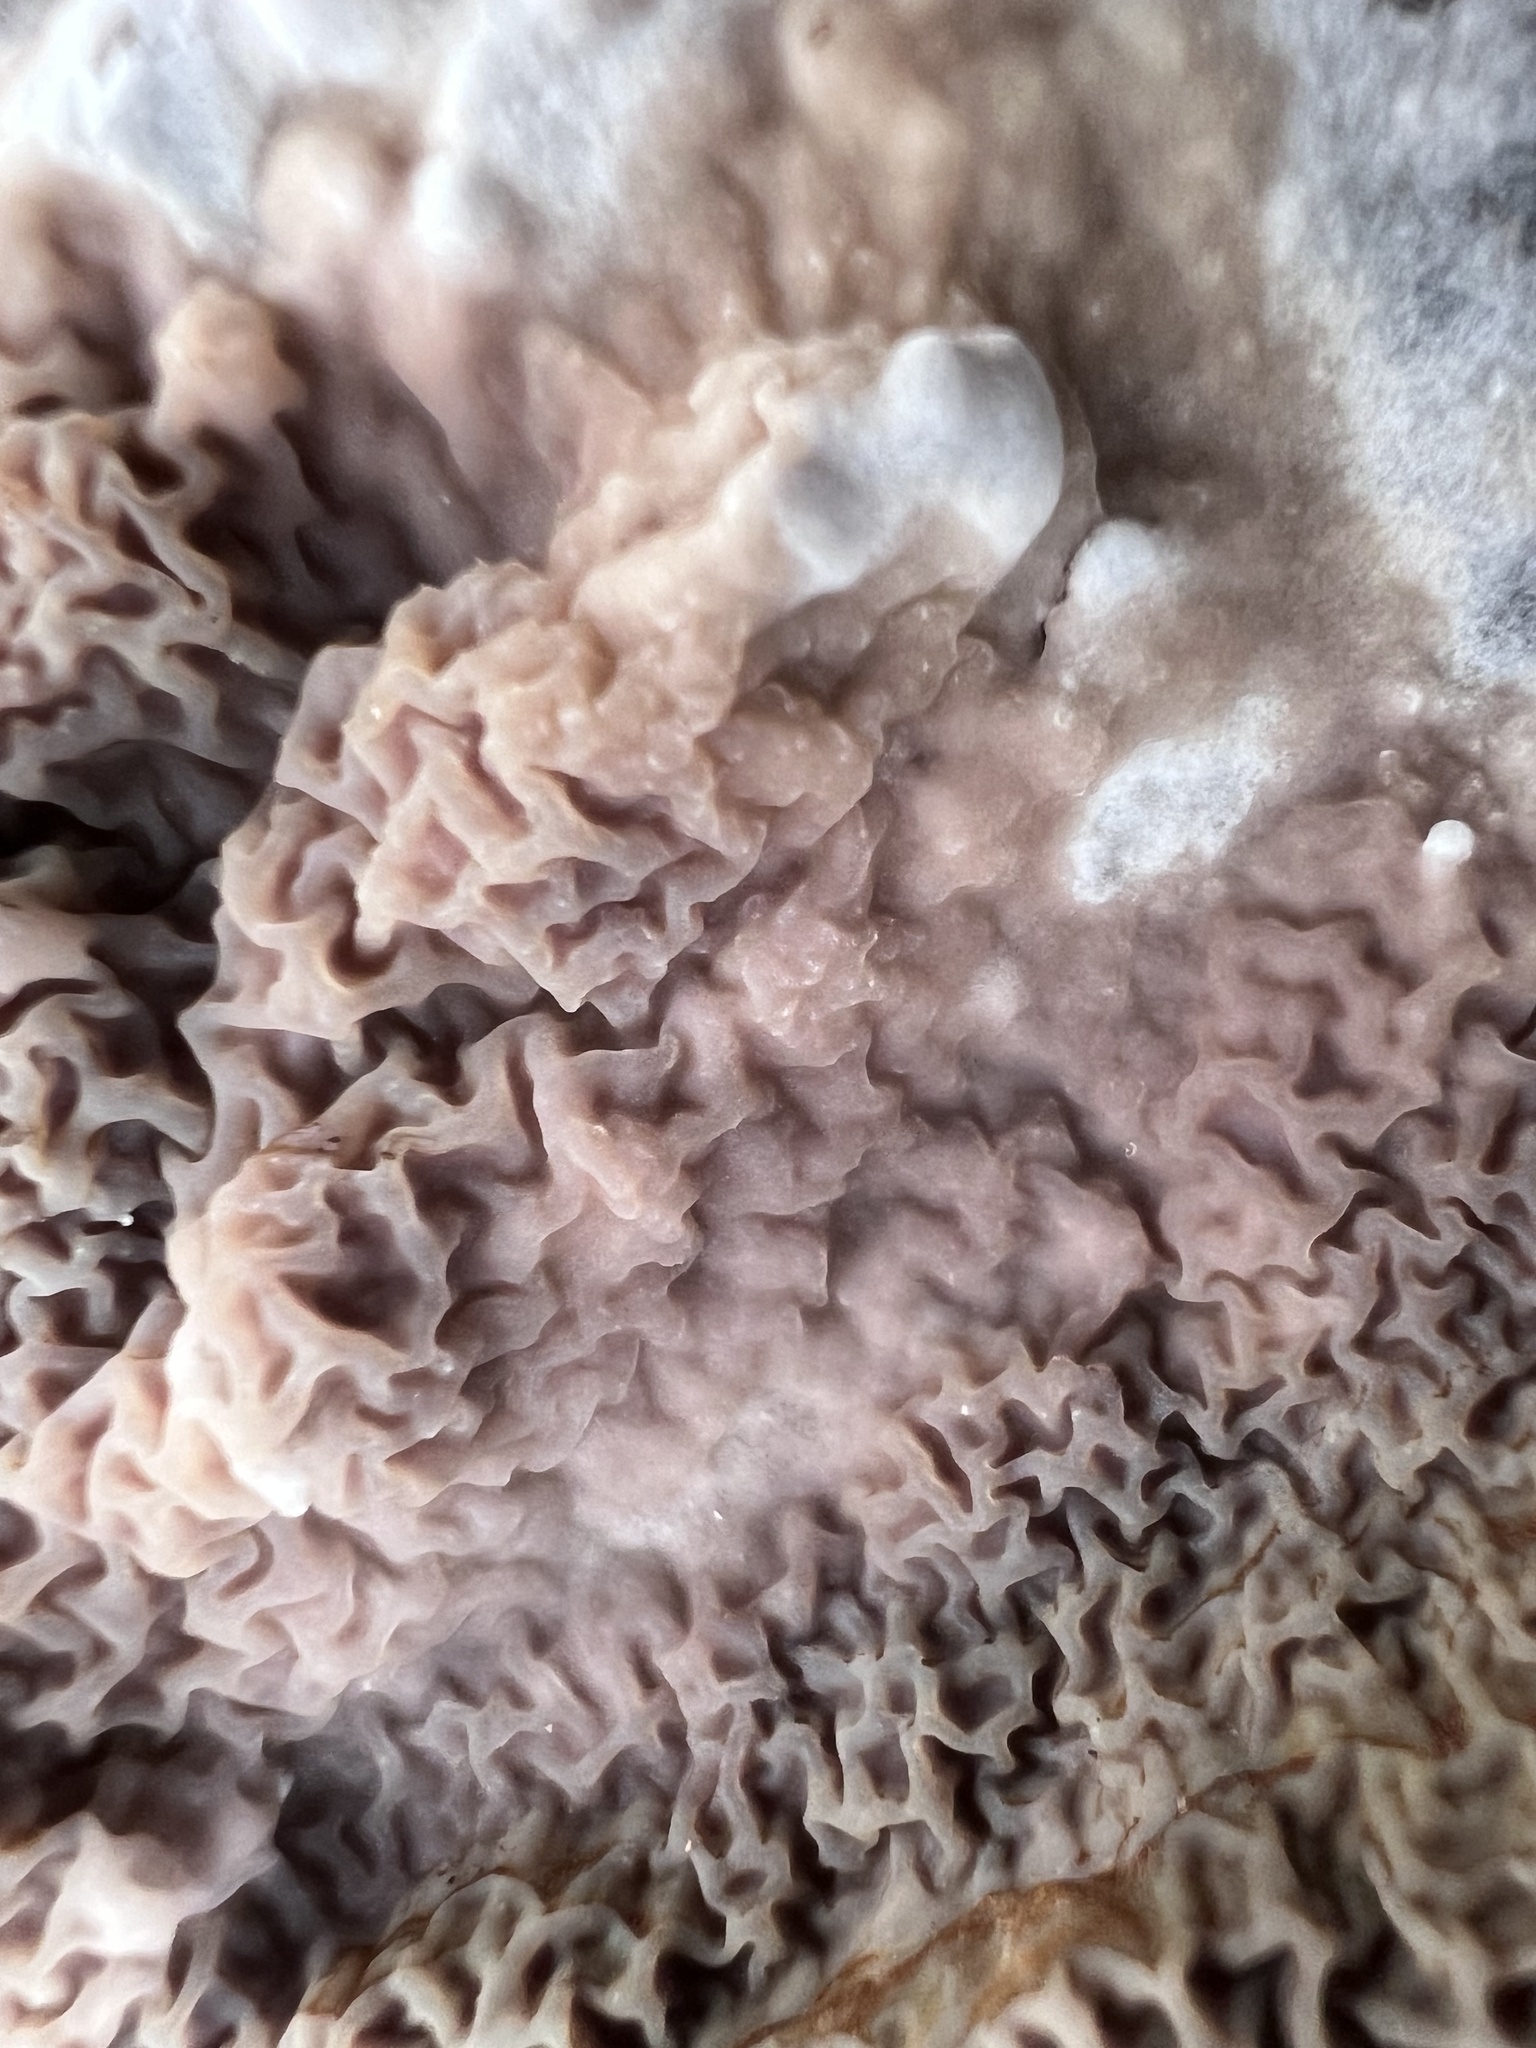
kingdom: Fungi
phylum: Basidiomycota
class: Agaricomycetes
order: Boletales
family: Serpulaceae
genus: Serpula
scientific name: Serpula himantioides
